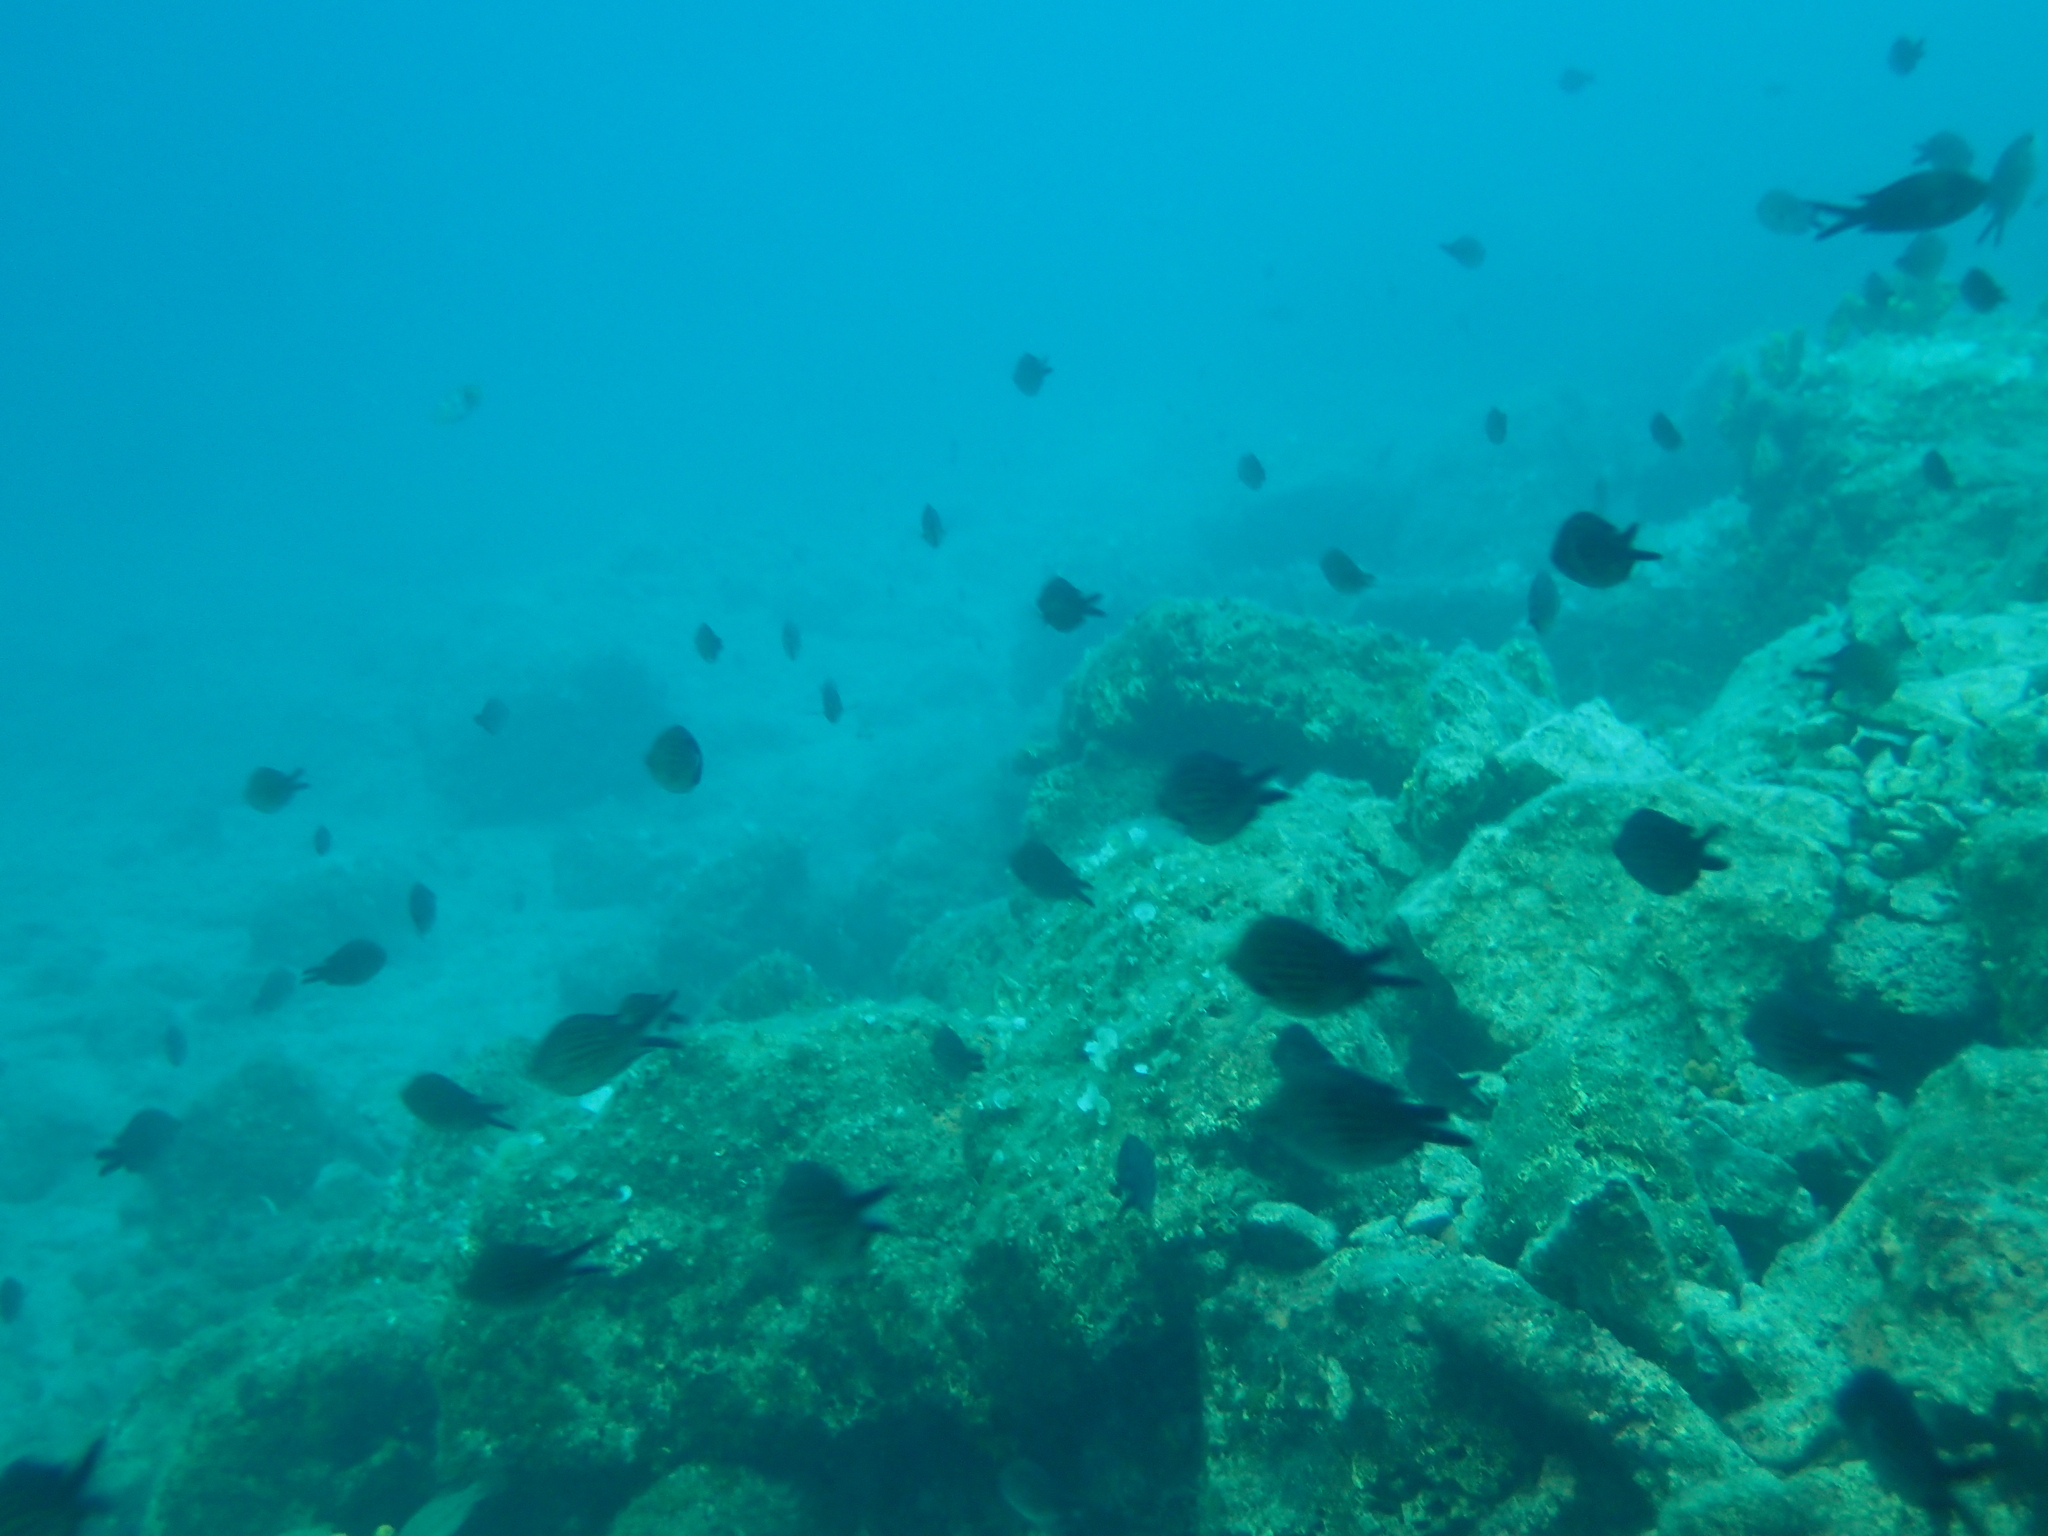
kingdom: Animalia
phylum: Chordata
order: Perciformes
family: Pomacentridae
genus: Chromis
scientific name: Chromis chromis
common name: Damselfish
